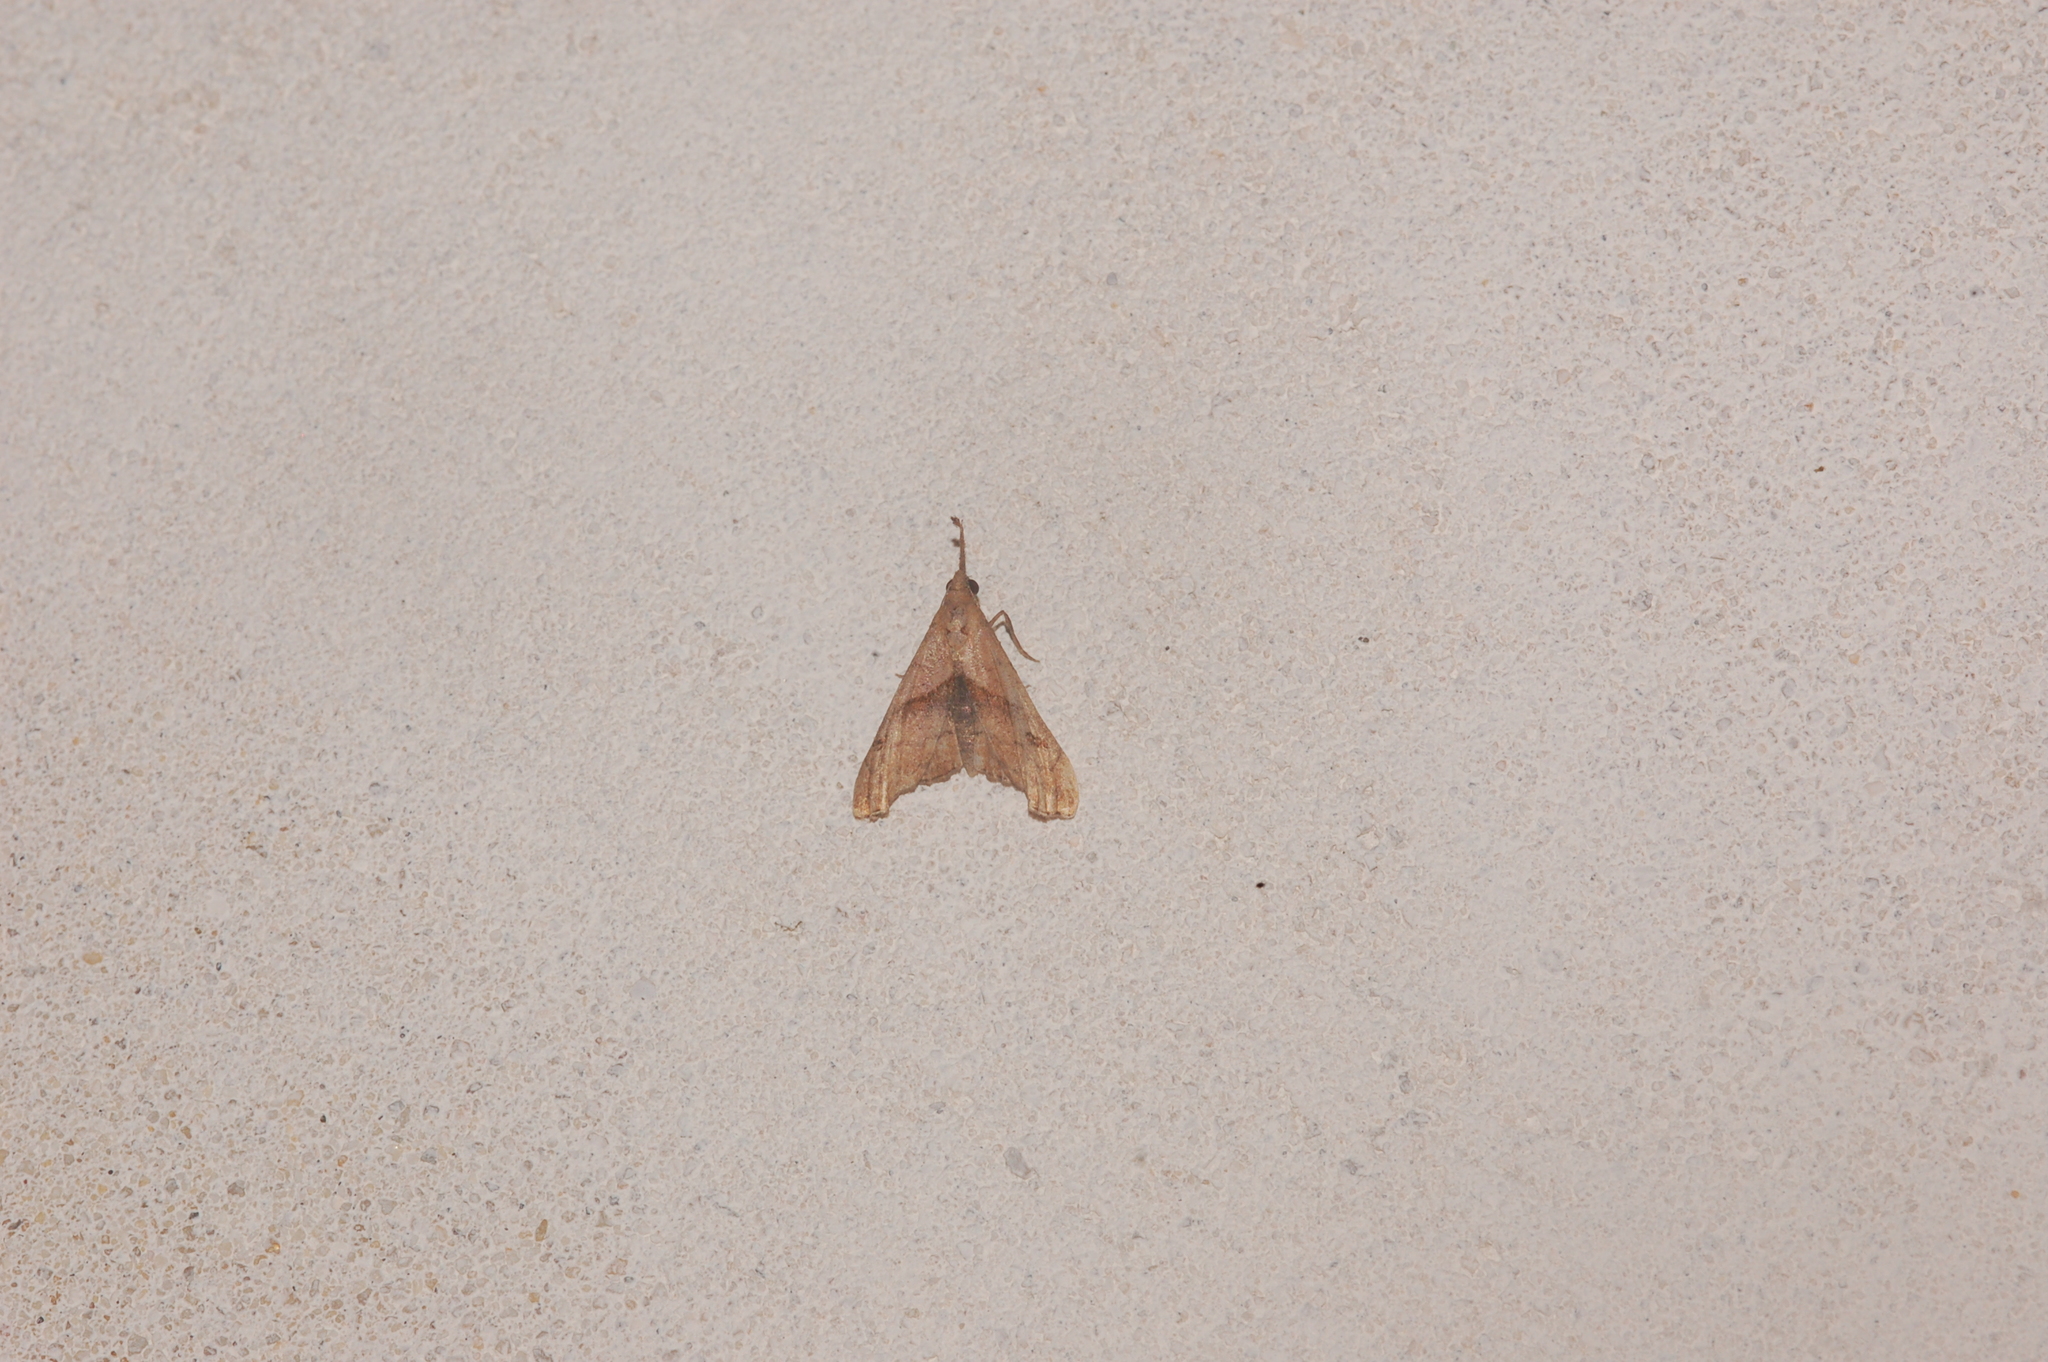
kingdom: Animalia
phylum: Arthropoda
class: Insecta
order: Lepidoptera
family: Erebidae
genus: Palthis
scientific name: Palthis angulalis
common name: Dark-spotted palthis moth
